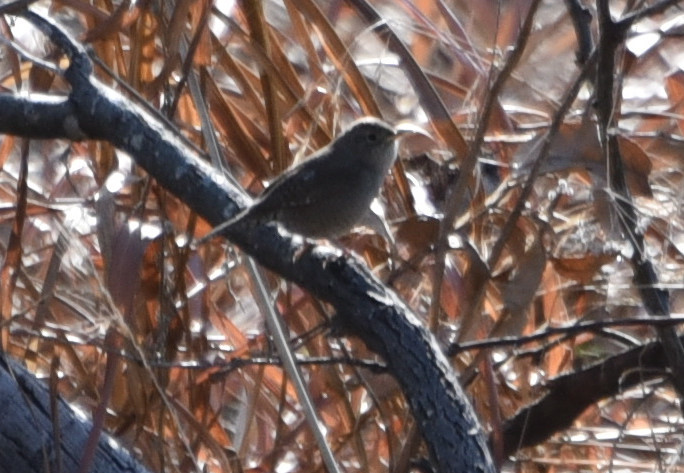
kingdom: Animalia
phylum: Chordata
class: Aves
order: Passeriformes
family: Troglodytidae
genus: Troglodytes
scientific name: Troglodytes aedon
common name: House wren
